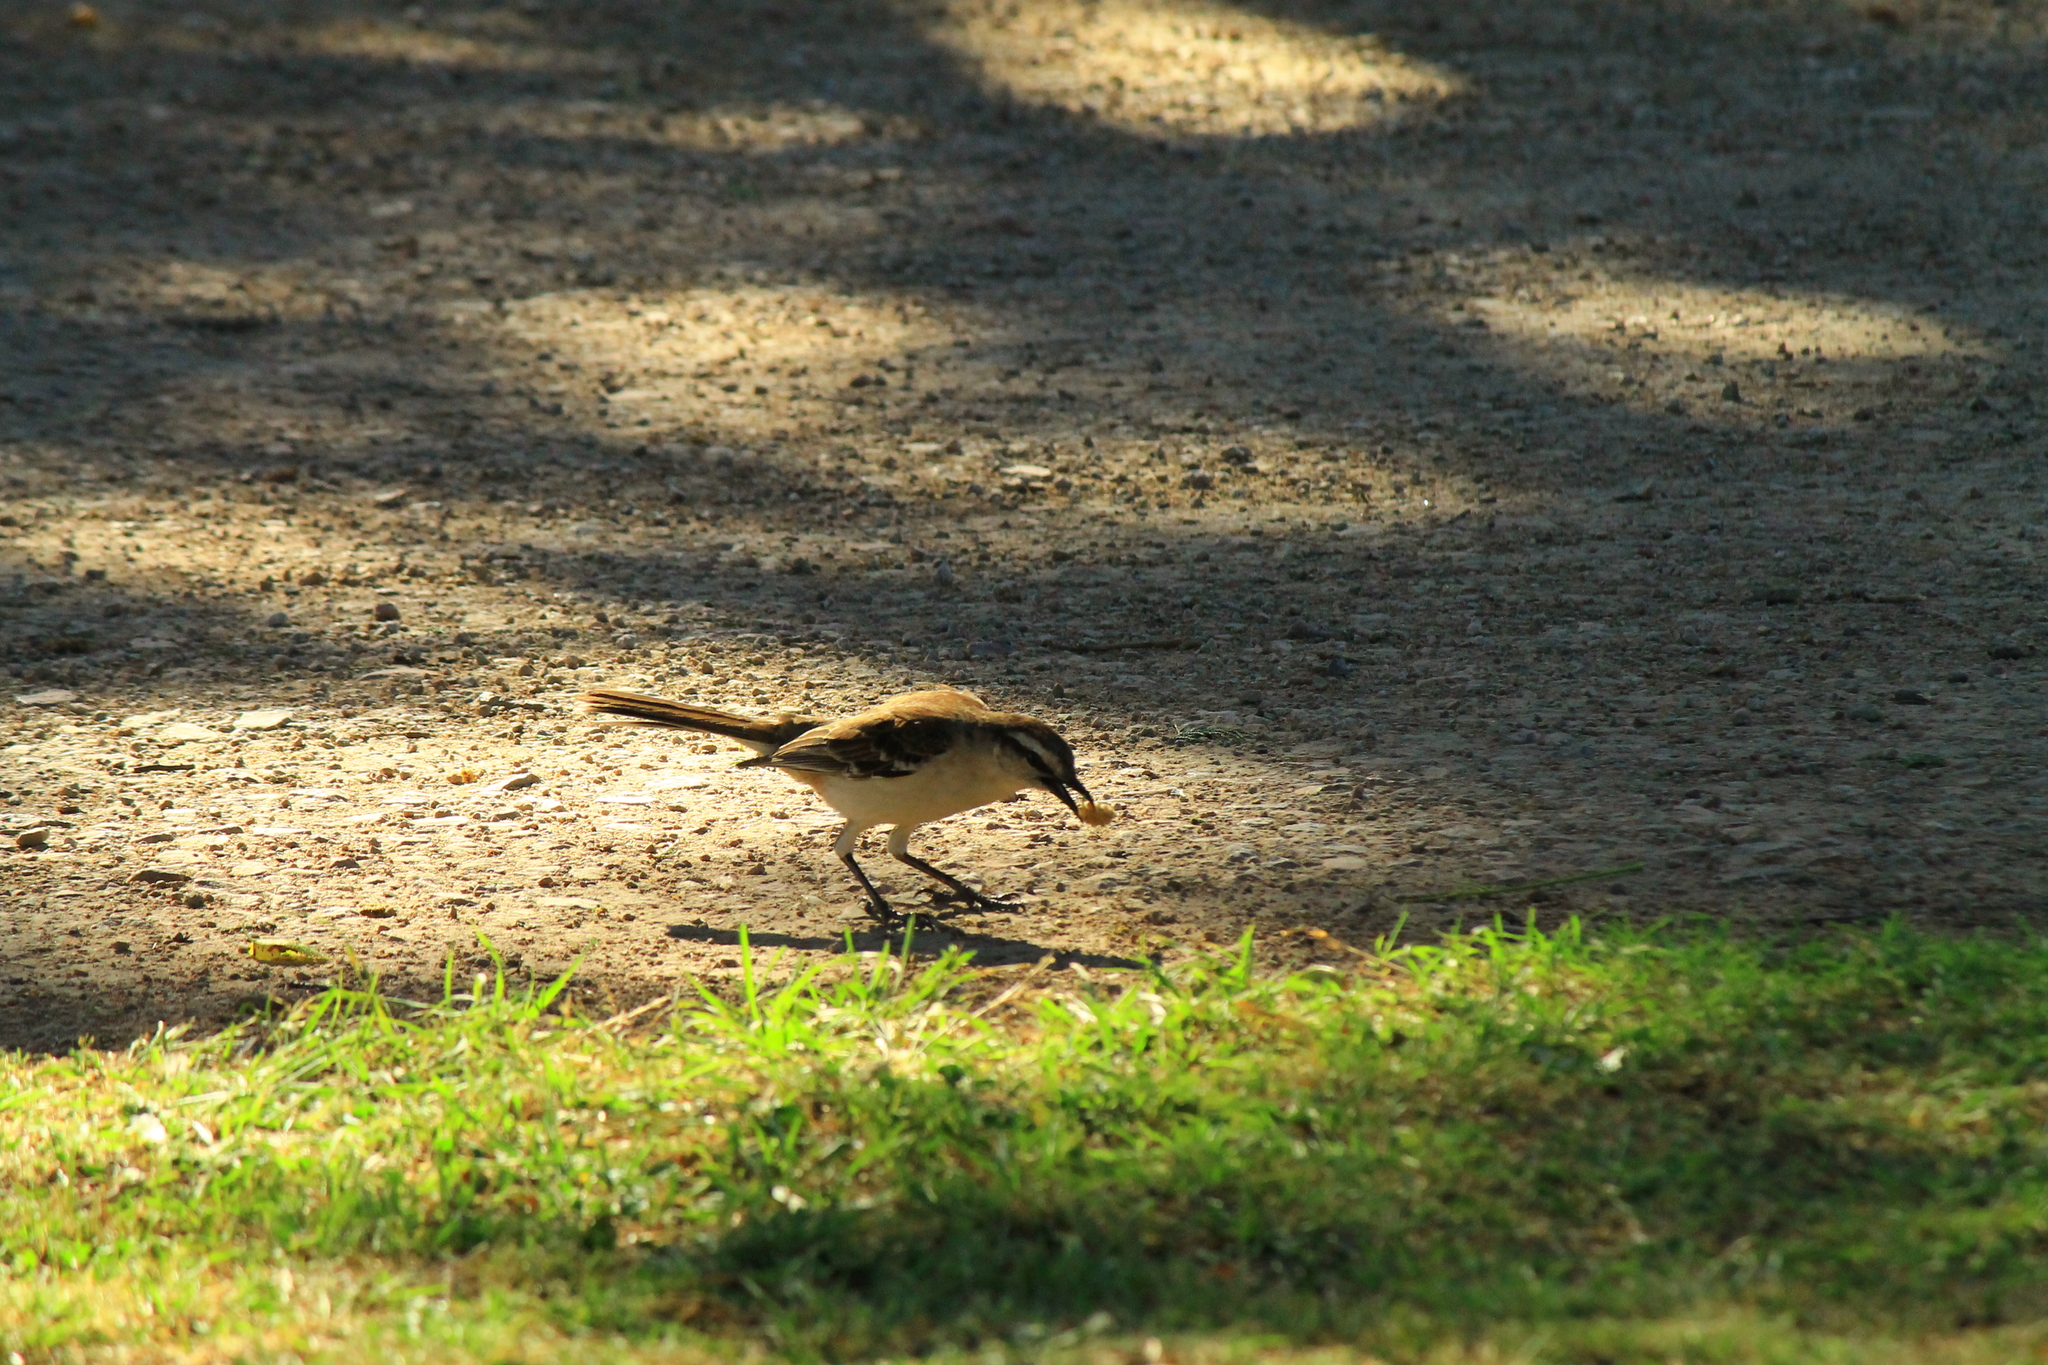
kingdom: Animalia
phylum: Chordata
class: Aves
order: Passeriformes
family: Mimidae
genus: Mimus
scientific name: Mimus saturninus
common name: Chalk-browed mockingbird
